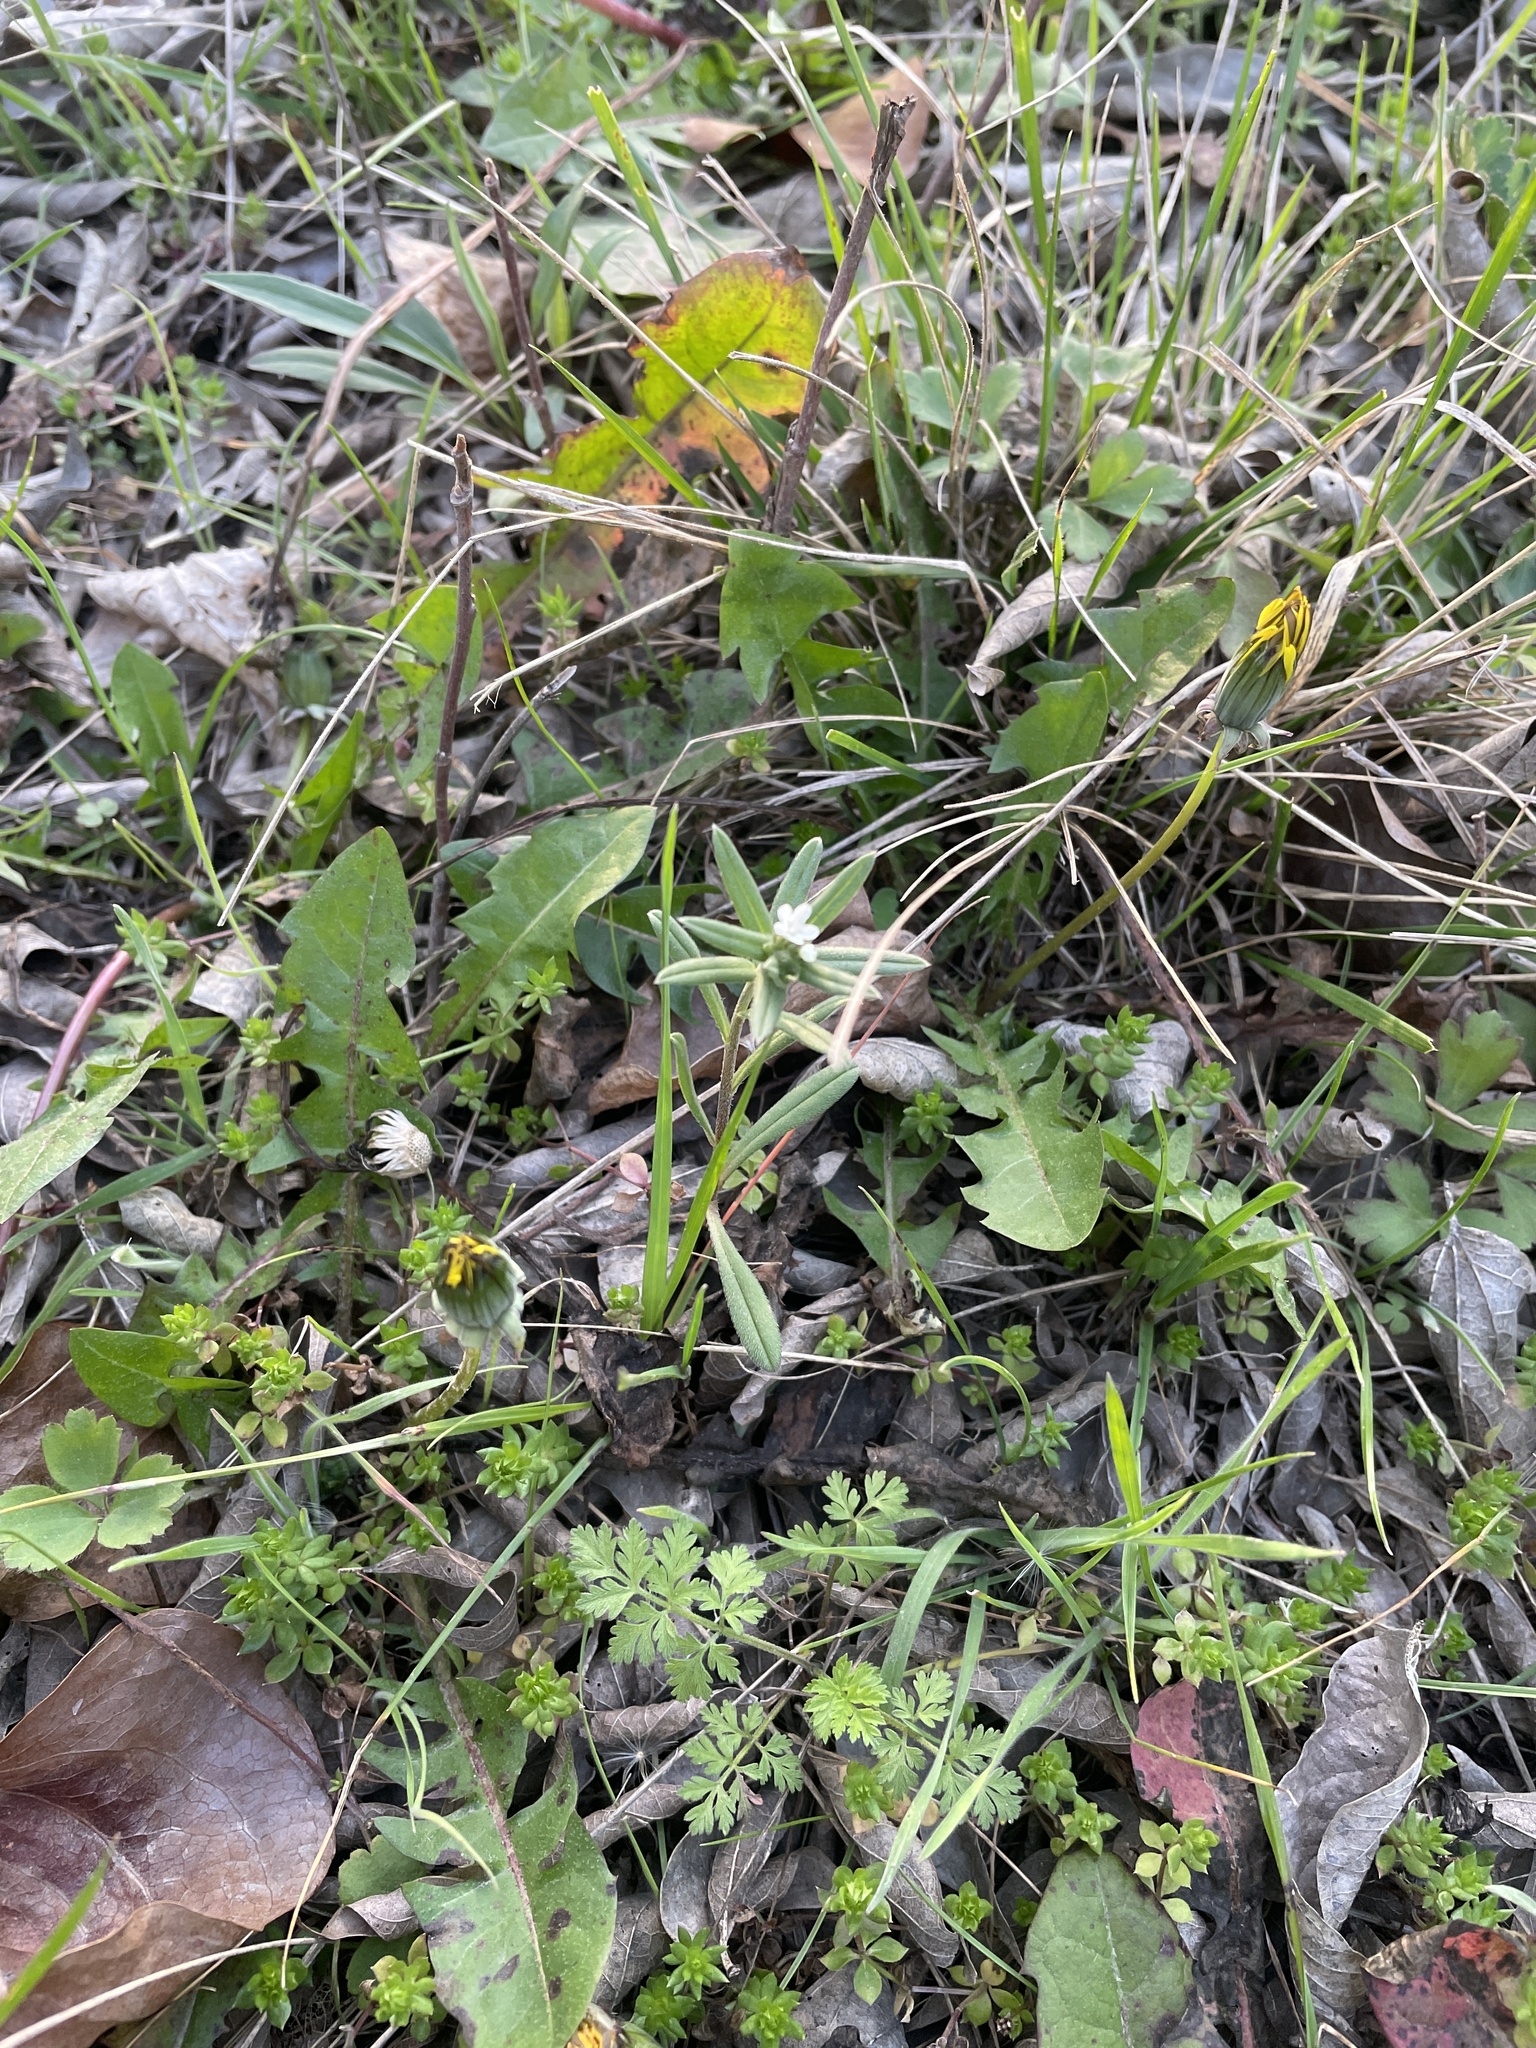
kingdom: Plantae
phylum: Tracheophyta
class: Magnoliopsida
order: Boraginales
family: Boraginaceae
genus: Buglossoides
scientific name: Buglossoides arvensis
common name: Corn gromwell
